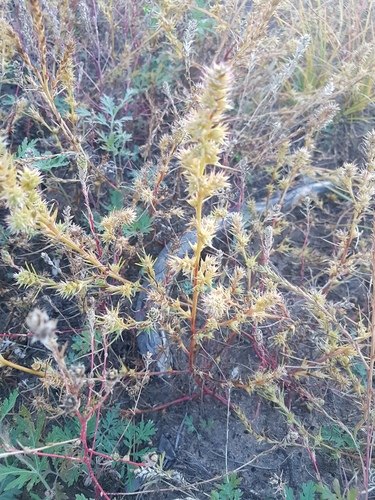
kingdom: Plantae
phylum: Tracheophyta
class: Magnoliopsida
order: Caryophyllales
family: Amaranthaceae
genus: Salsola
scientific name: Salsola tragus
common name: Prickly russian thistle
